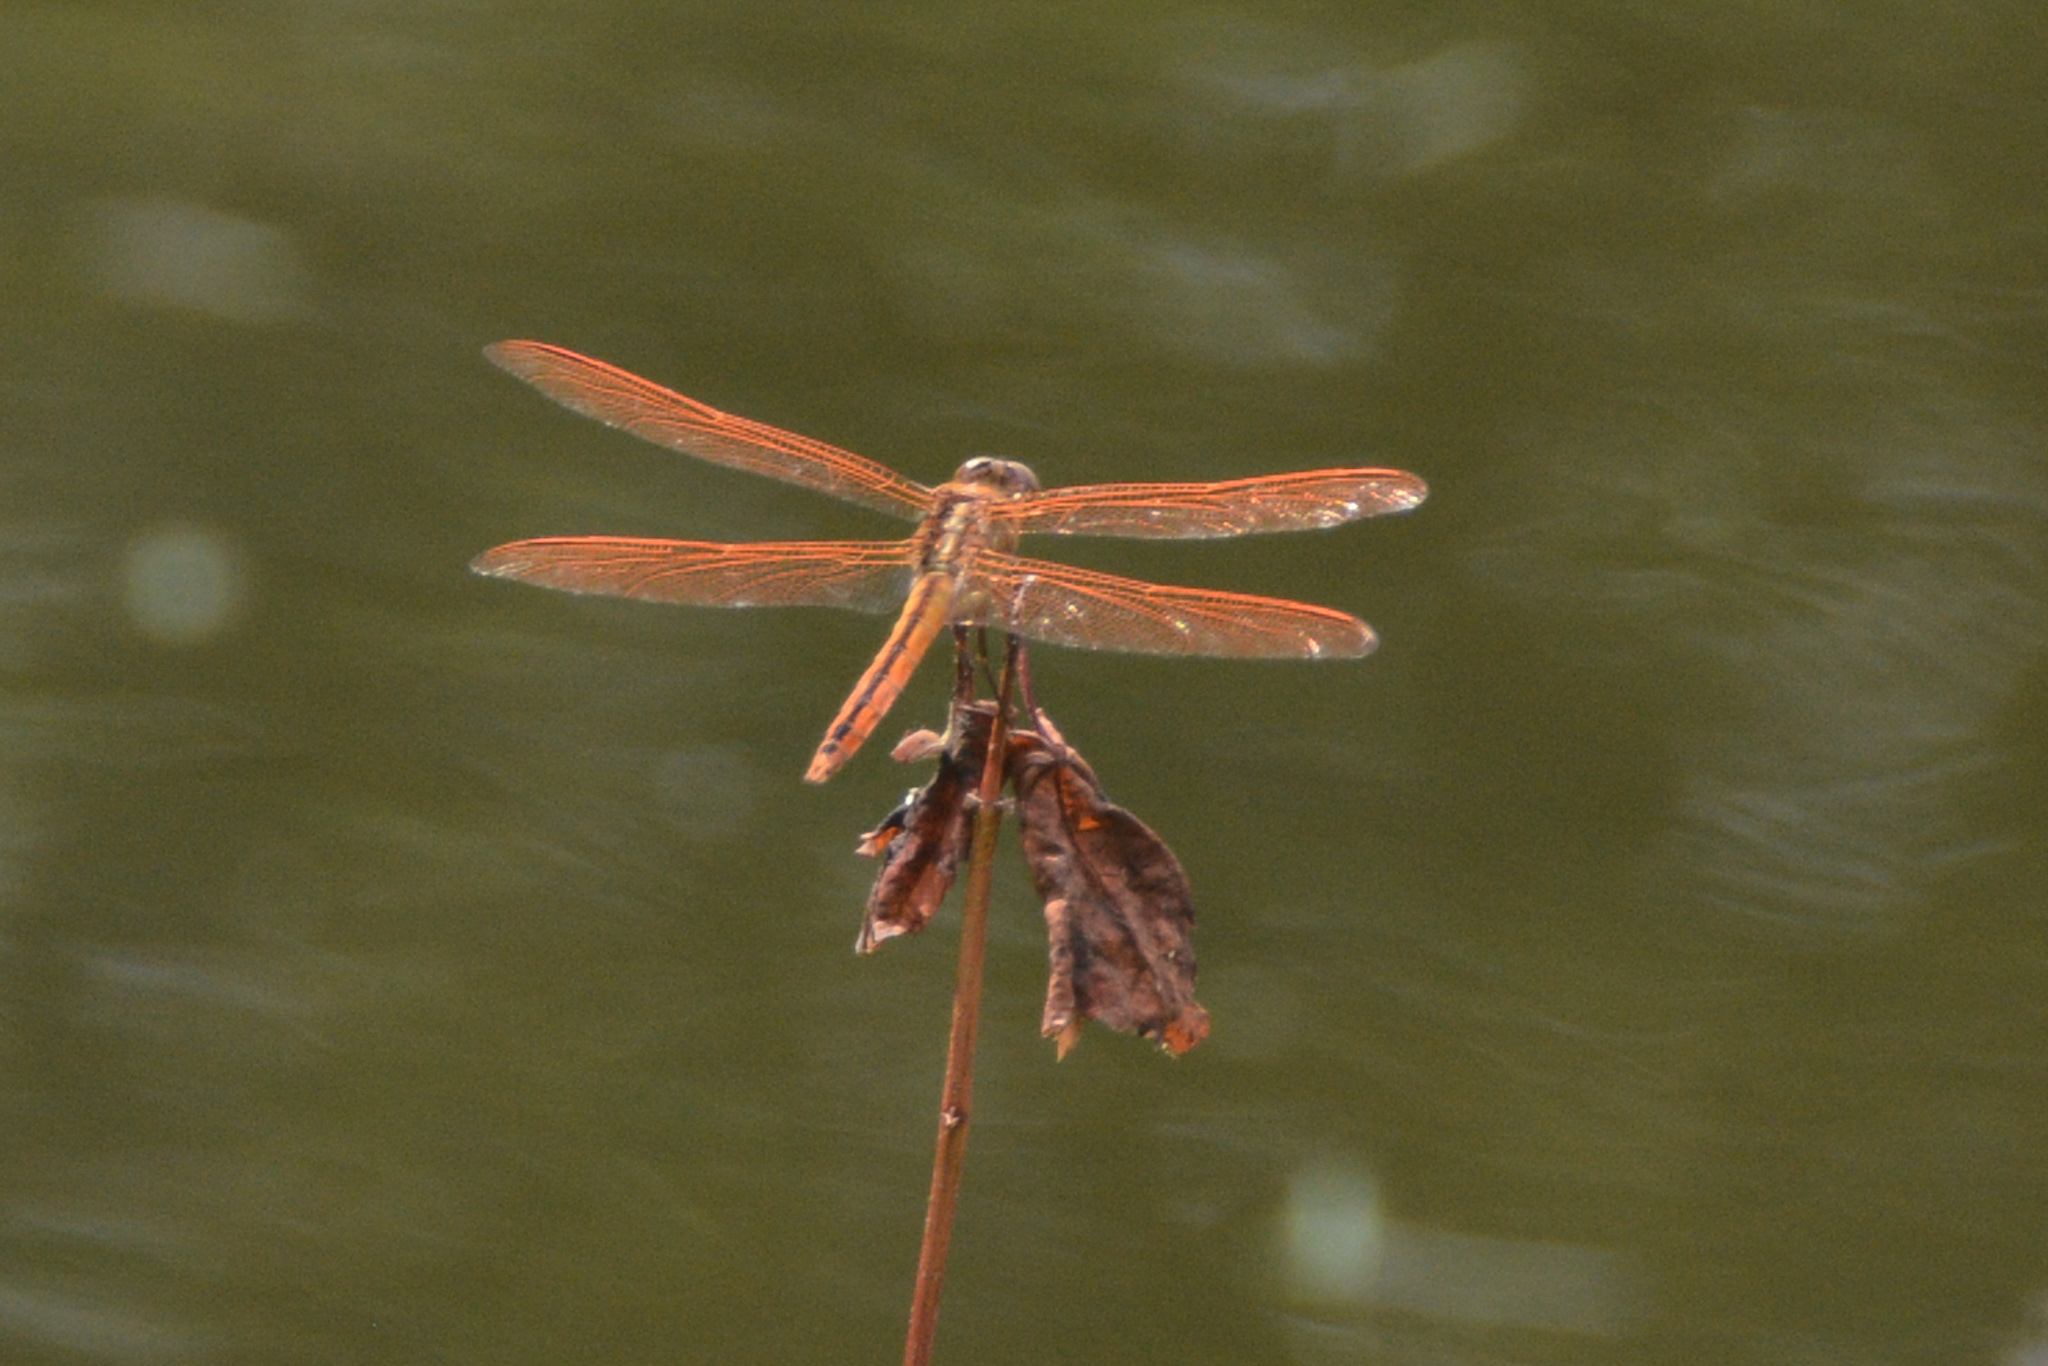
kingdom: Animalia
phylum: Arthropoda
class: Insecta
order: Odonata
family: Libellulidae
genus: Libellula
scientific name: Libellula auripennis
